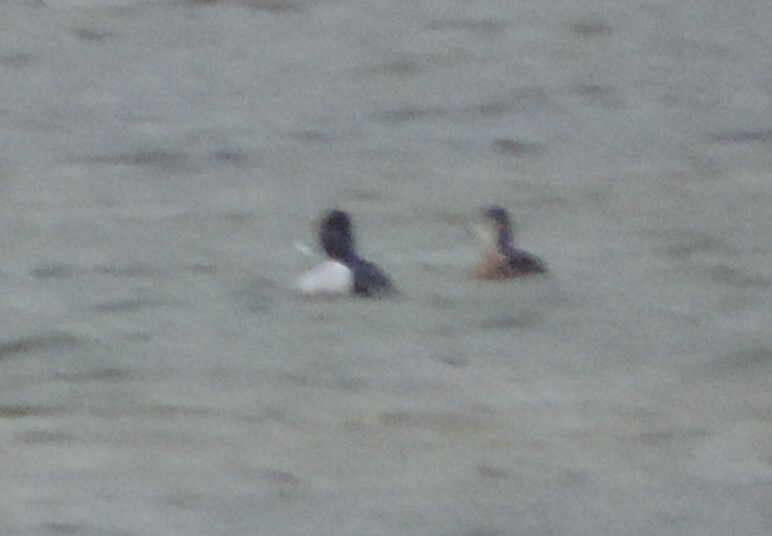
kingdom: Animalia
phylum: Chordata
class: Aves
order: Anseriformes
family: Anatidae
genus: Aythya
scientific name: Aythya collaris
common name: Ring-necked duck
